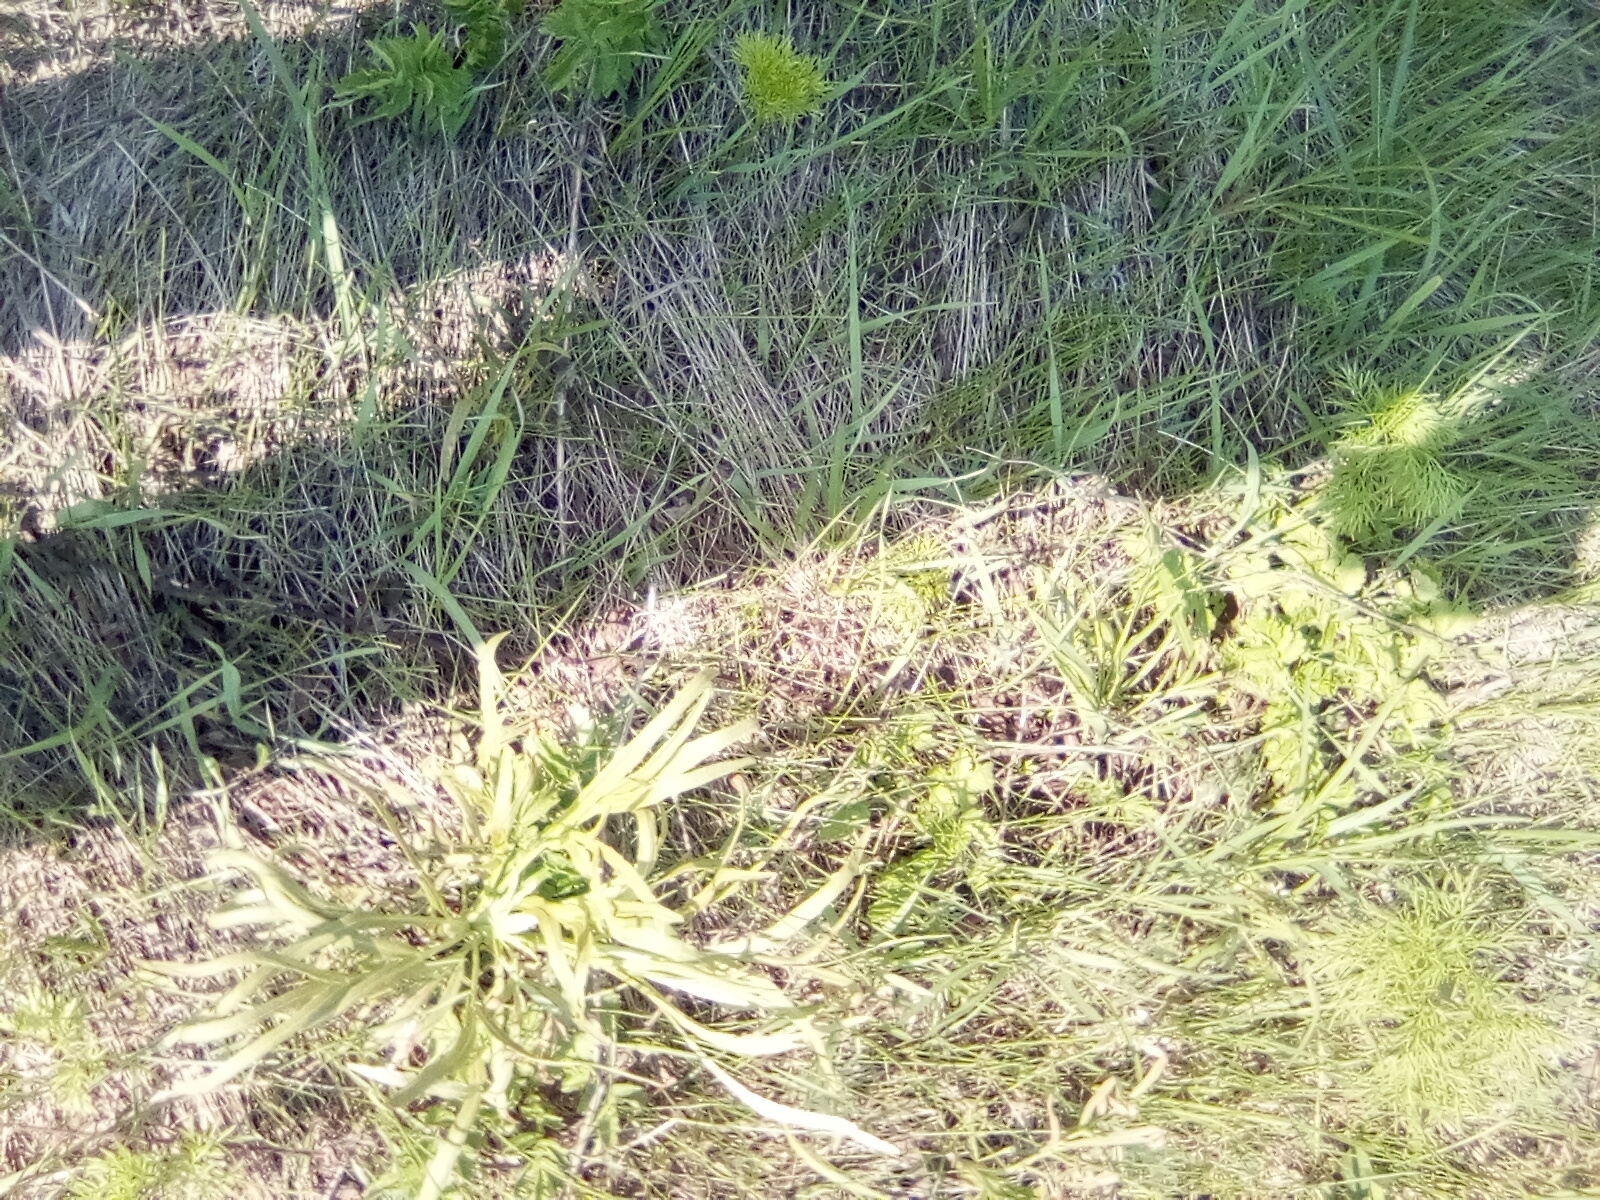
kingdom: Plantae
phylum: Tracheophyta
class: Magnoliopsida
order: Apiales
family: Apiaceae
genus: Falcaria
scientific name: Falcaria vulgaris
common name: Longleaf
